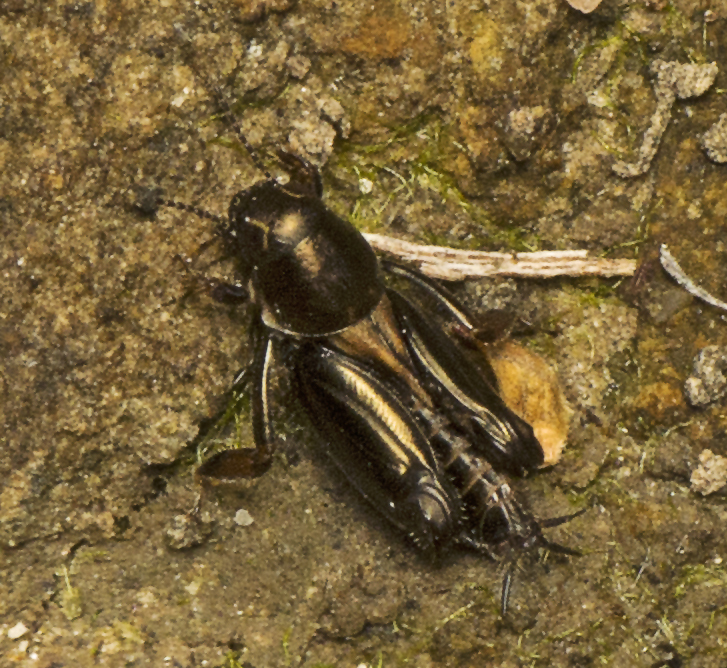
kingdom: Animalia
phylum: Arthropoda
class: Insecta
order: Orthoptera
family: Tridactylidae
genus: Xya
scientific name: Xya muta
